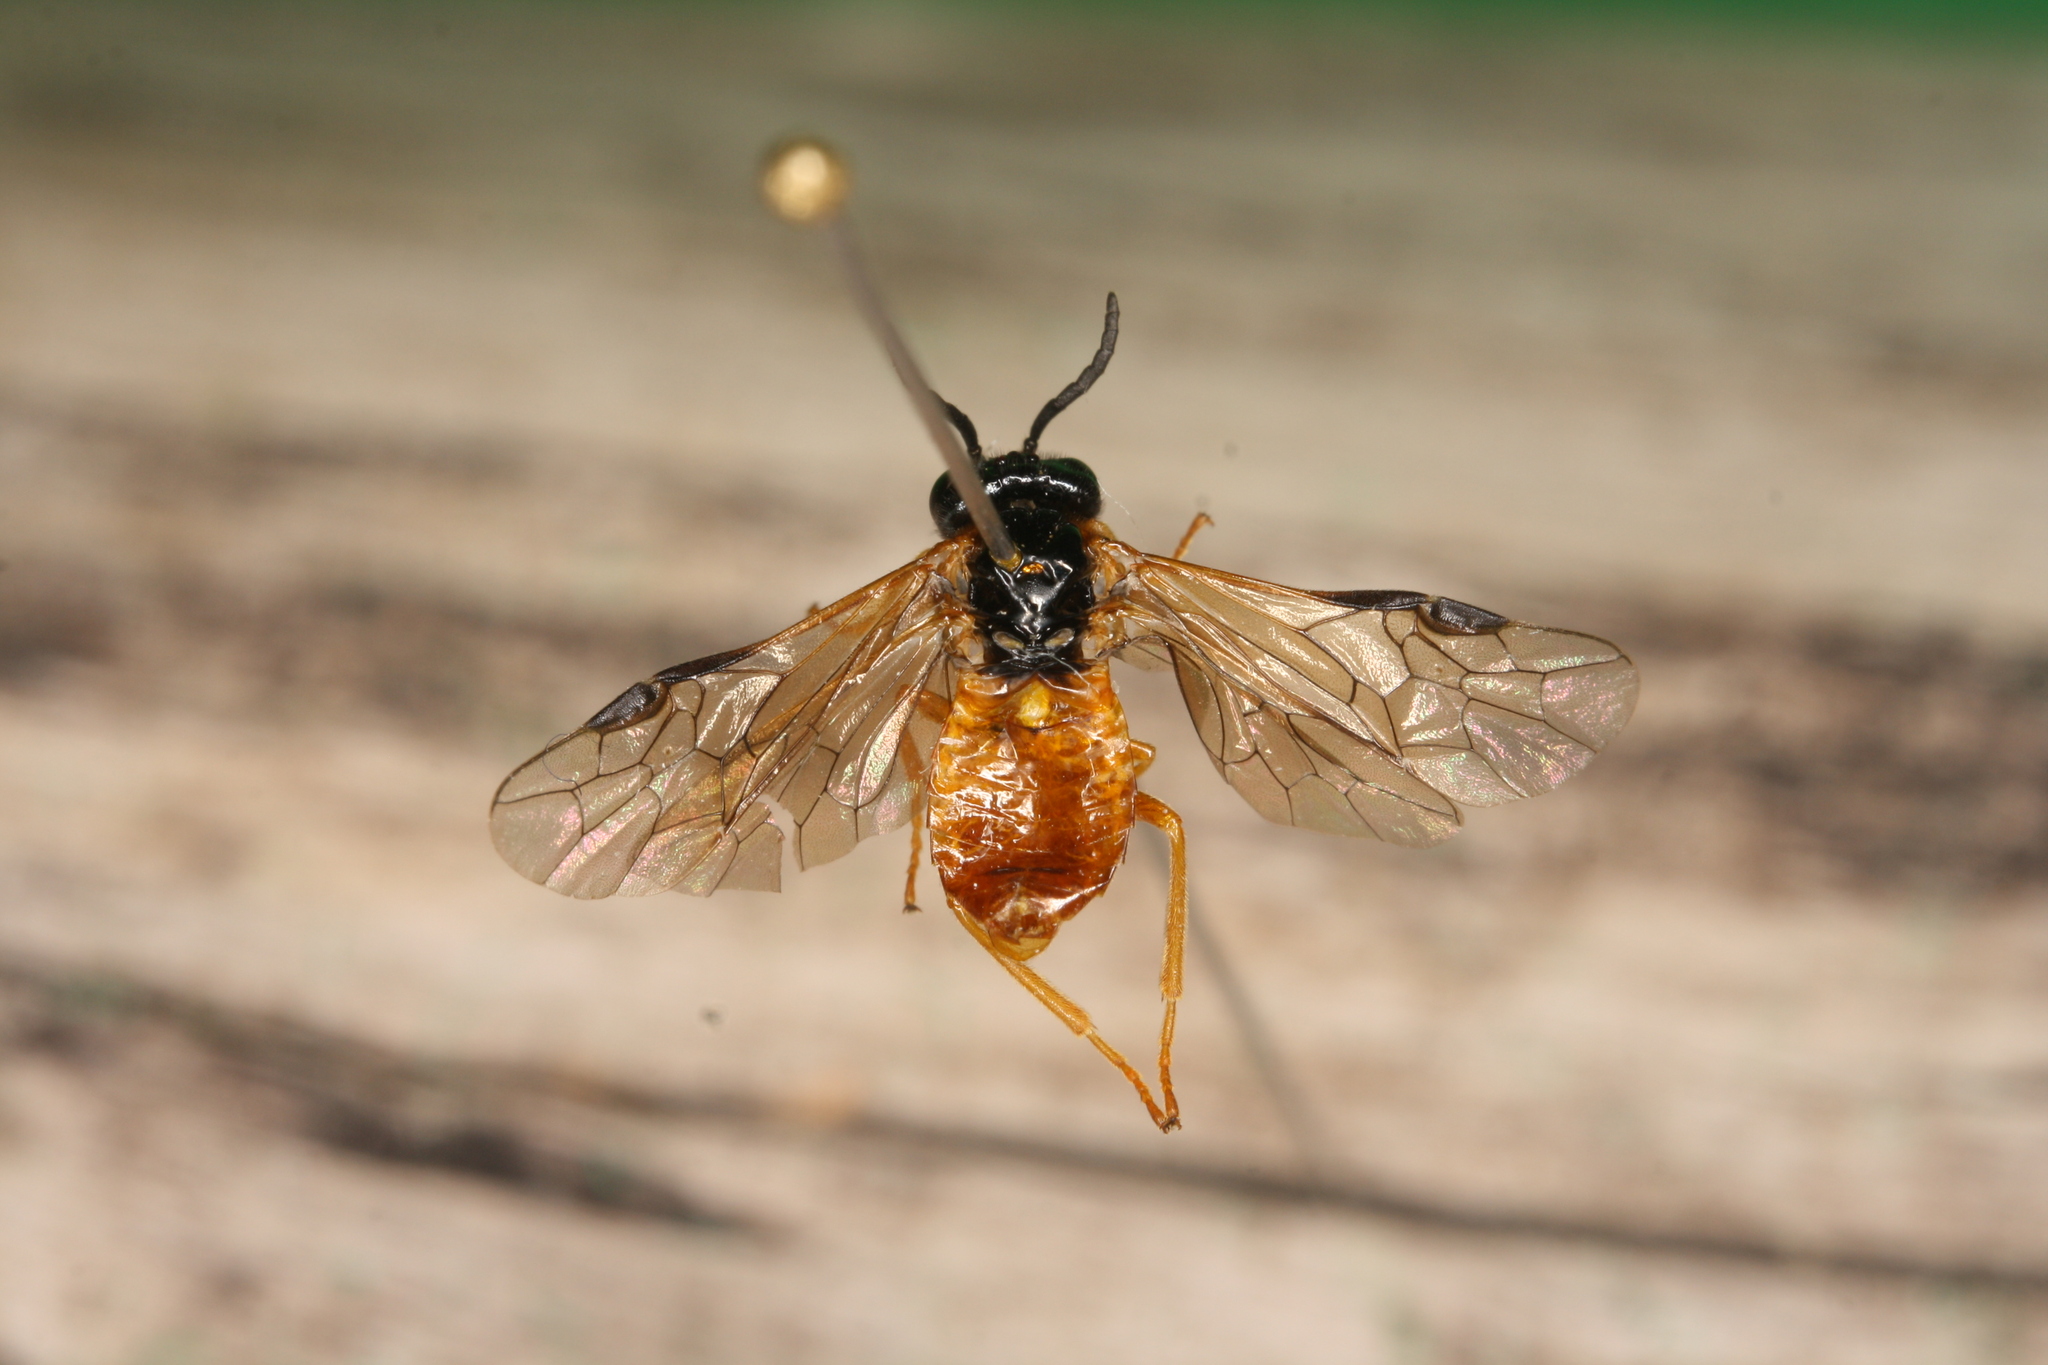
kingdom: Animalia
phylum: Arthropoda
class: Insecta
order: Hymenoptera
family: Tenthredinidae
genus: Selandria
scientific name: Selandria serva
